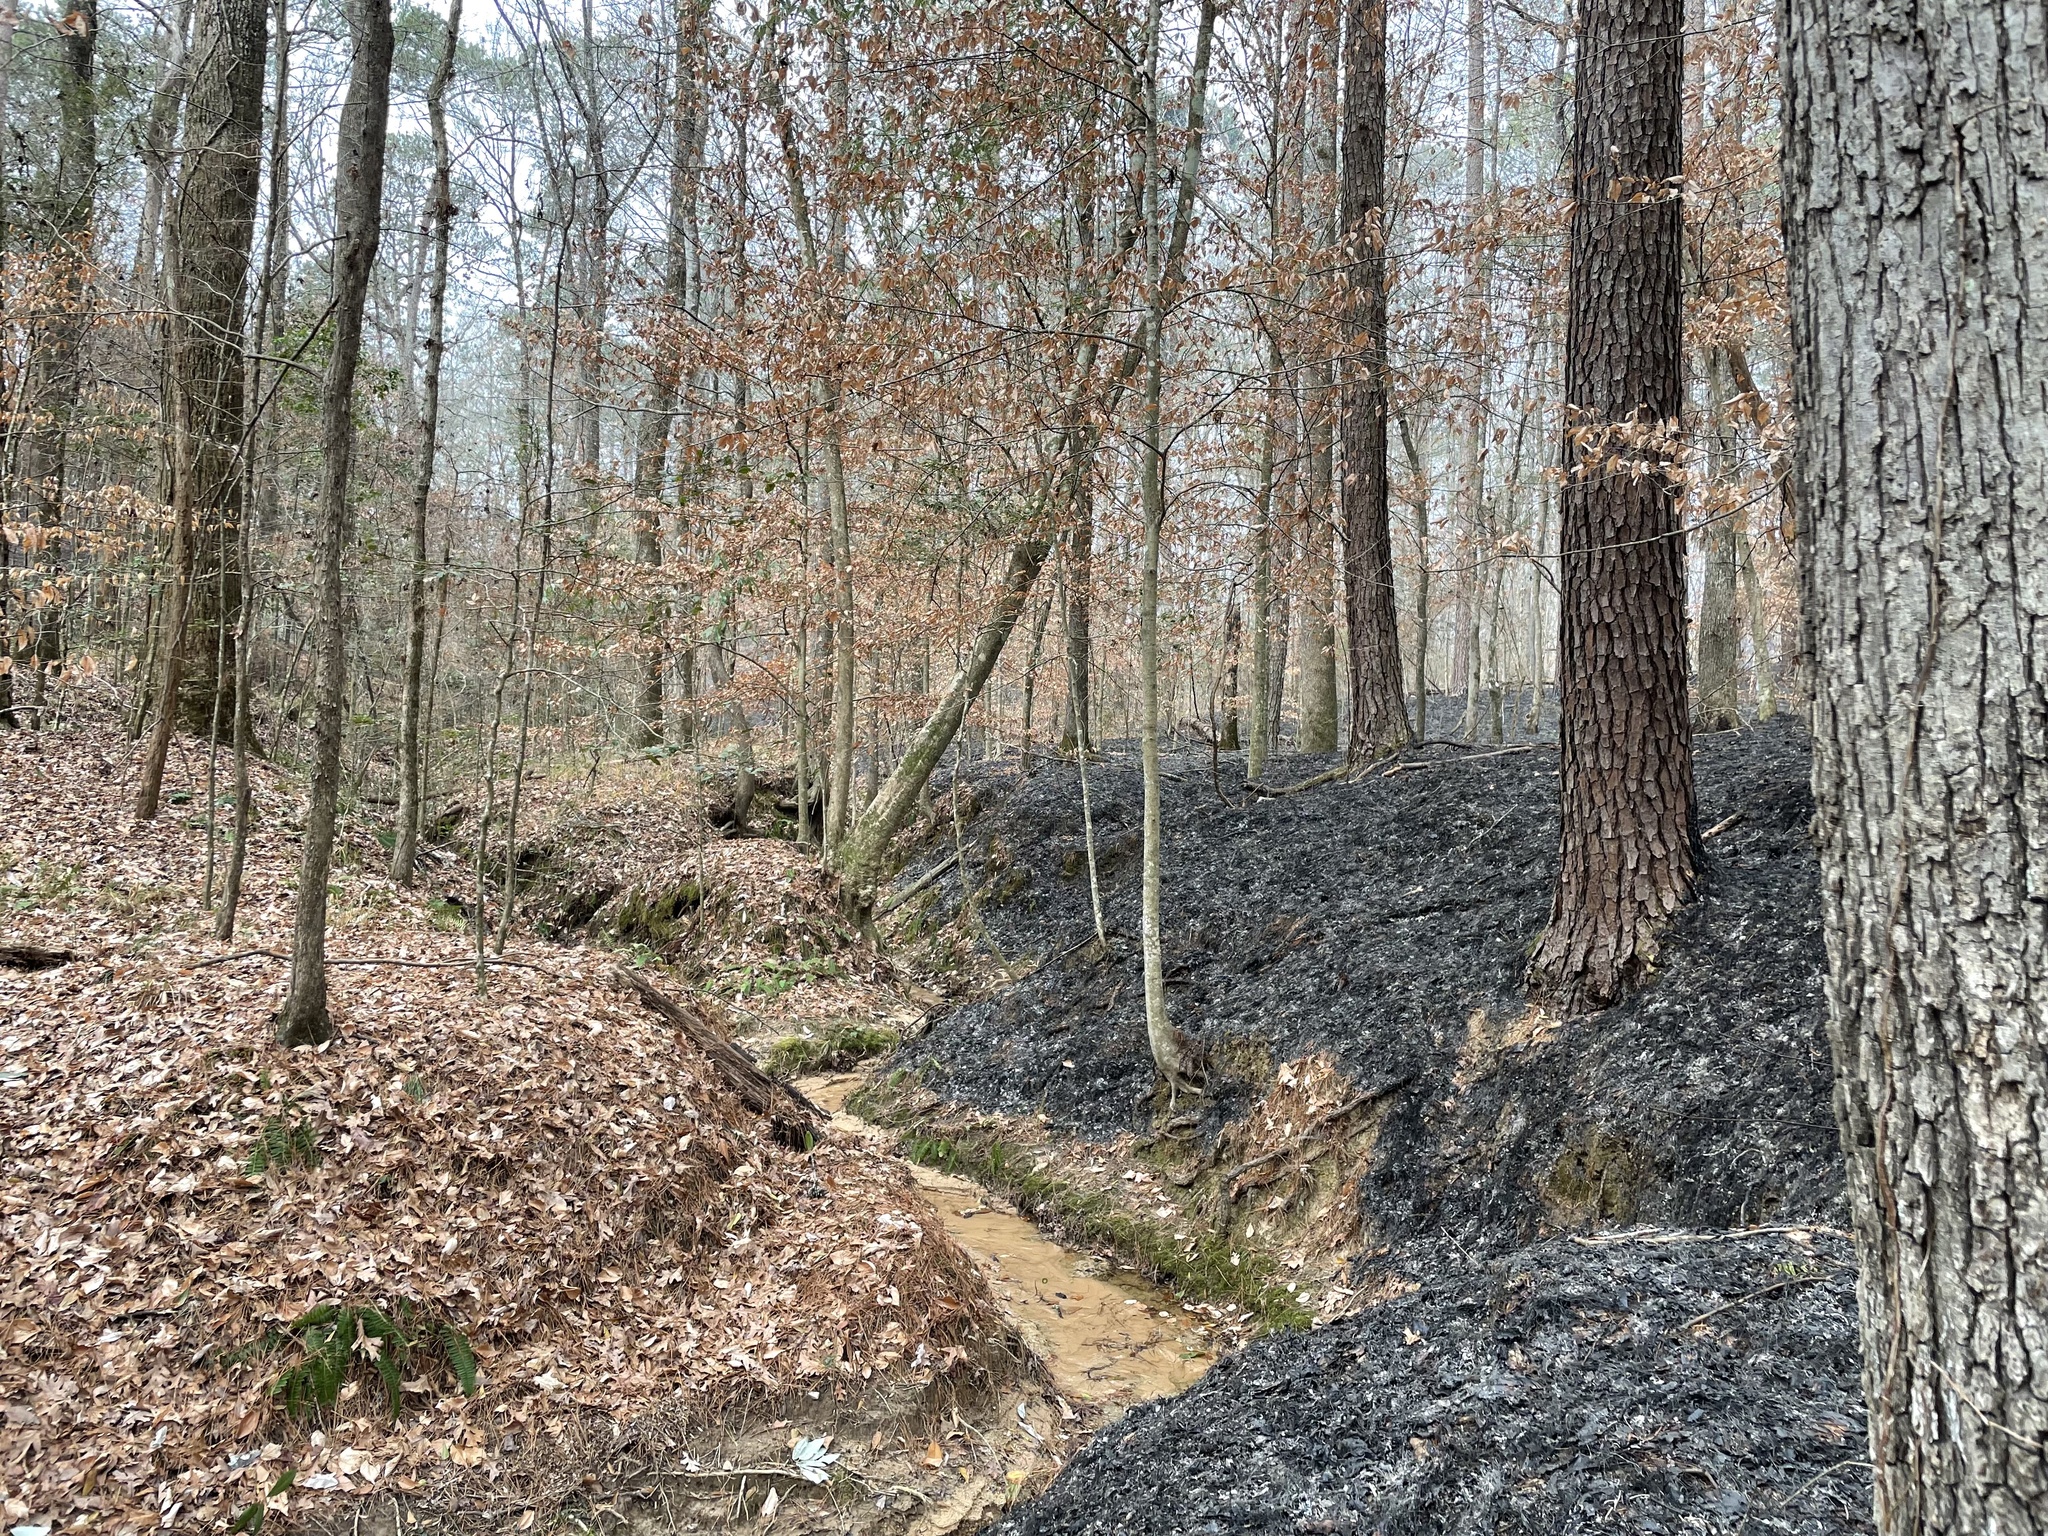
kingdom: Plantae
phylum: Tracheophyta
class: Pinopsida
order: Pinales
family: Pinaceae
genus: Pinus
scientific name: Pinus taeda
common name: Loblolly pine
